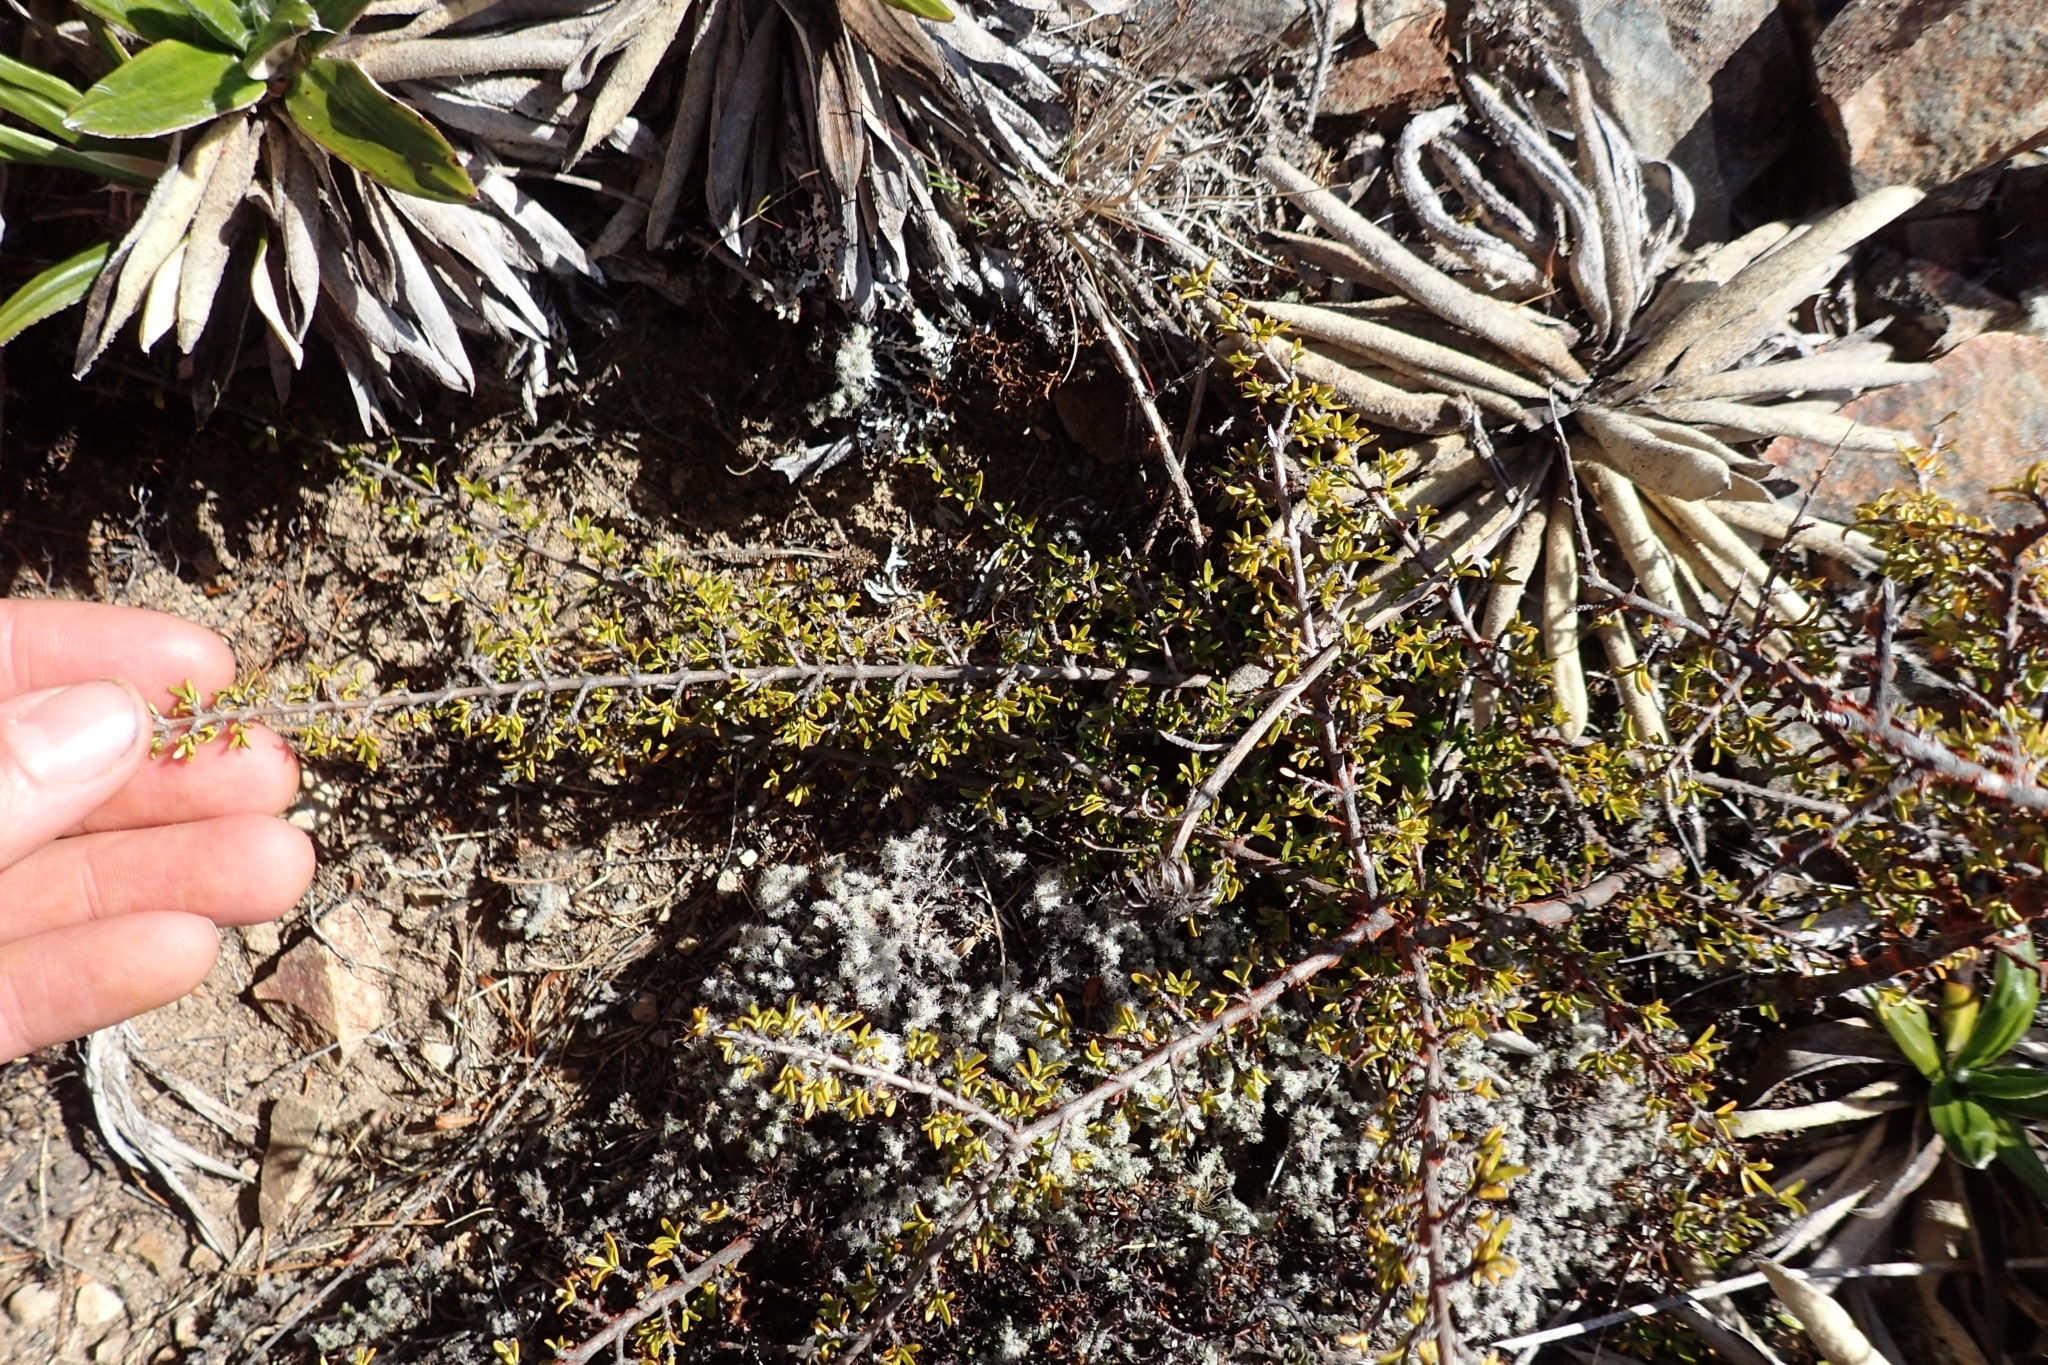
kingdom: Plantae
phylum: Tracheophyta
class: Magnoliopsida
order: Gentianales
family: Rubiaceae
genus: Coprosma
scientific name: Coprosma cheesemanii
